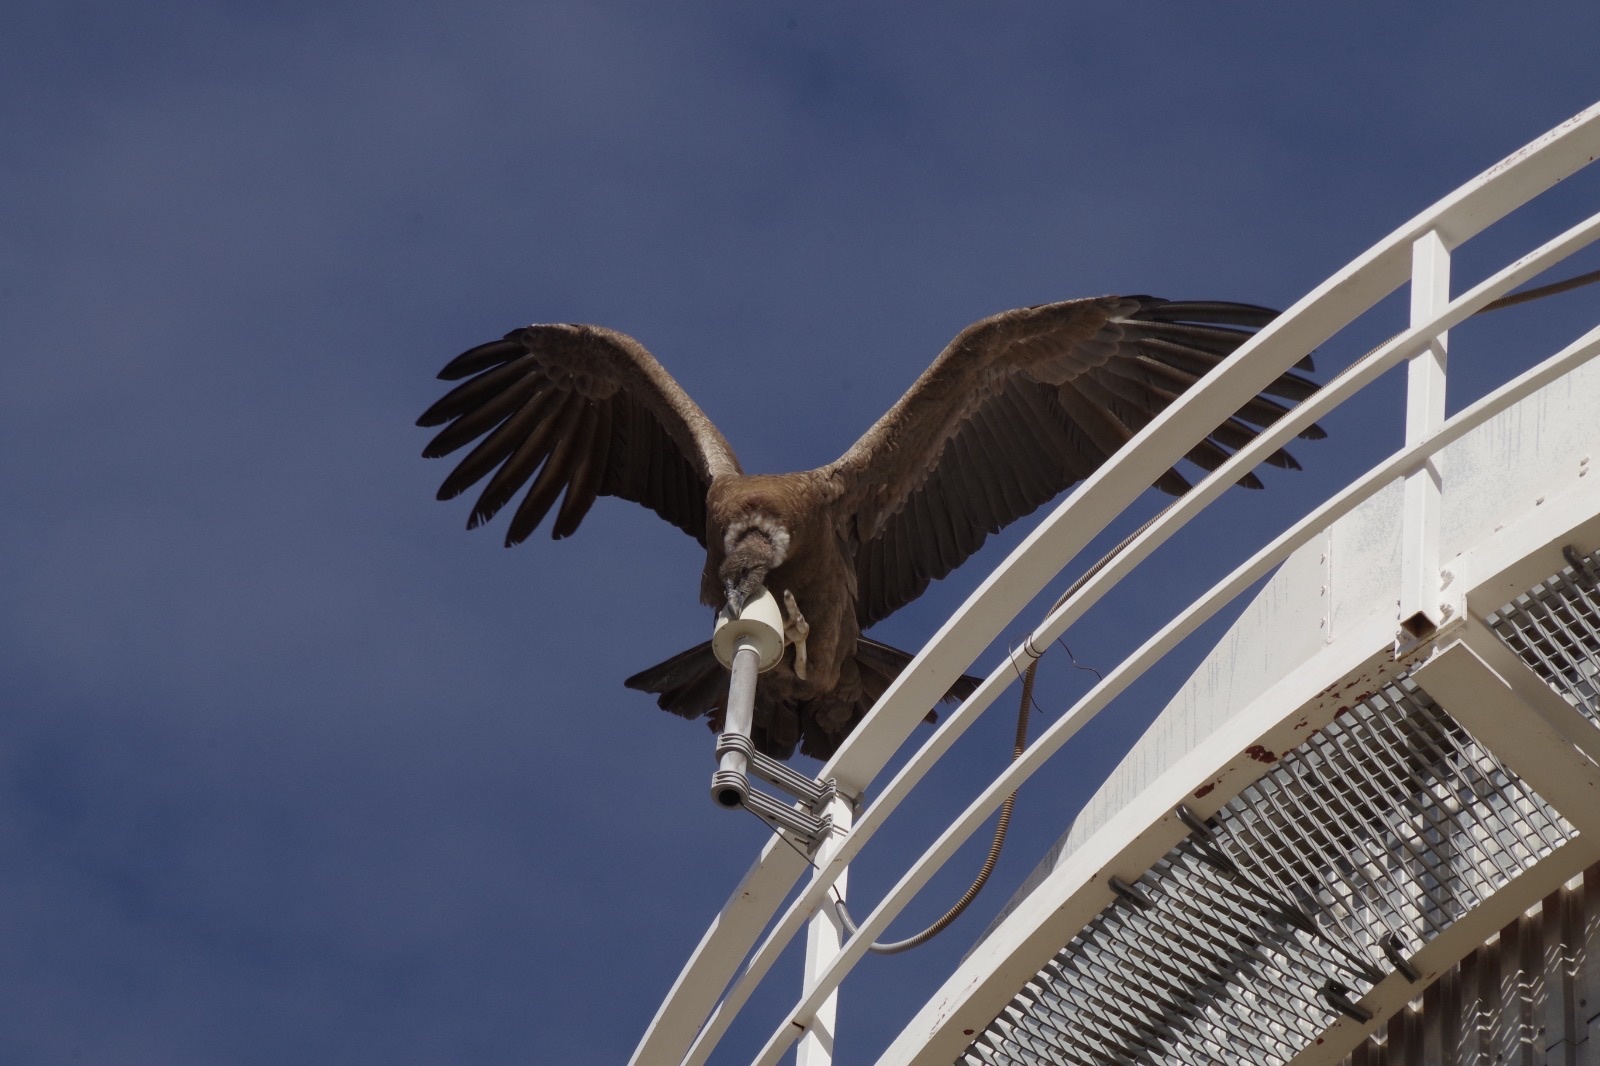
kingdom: Animalia
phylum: Chordata
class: Aves
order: Accipitriformes
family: Cathartidae
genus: Vultur
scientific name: Vultur gryphus
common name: Andean condor
